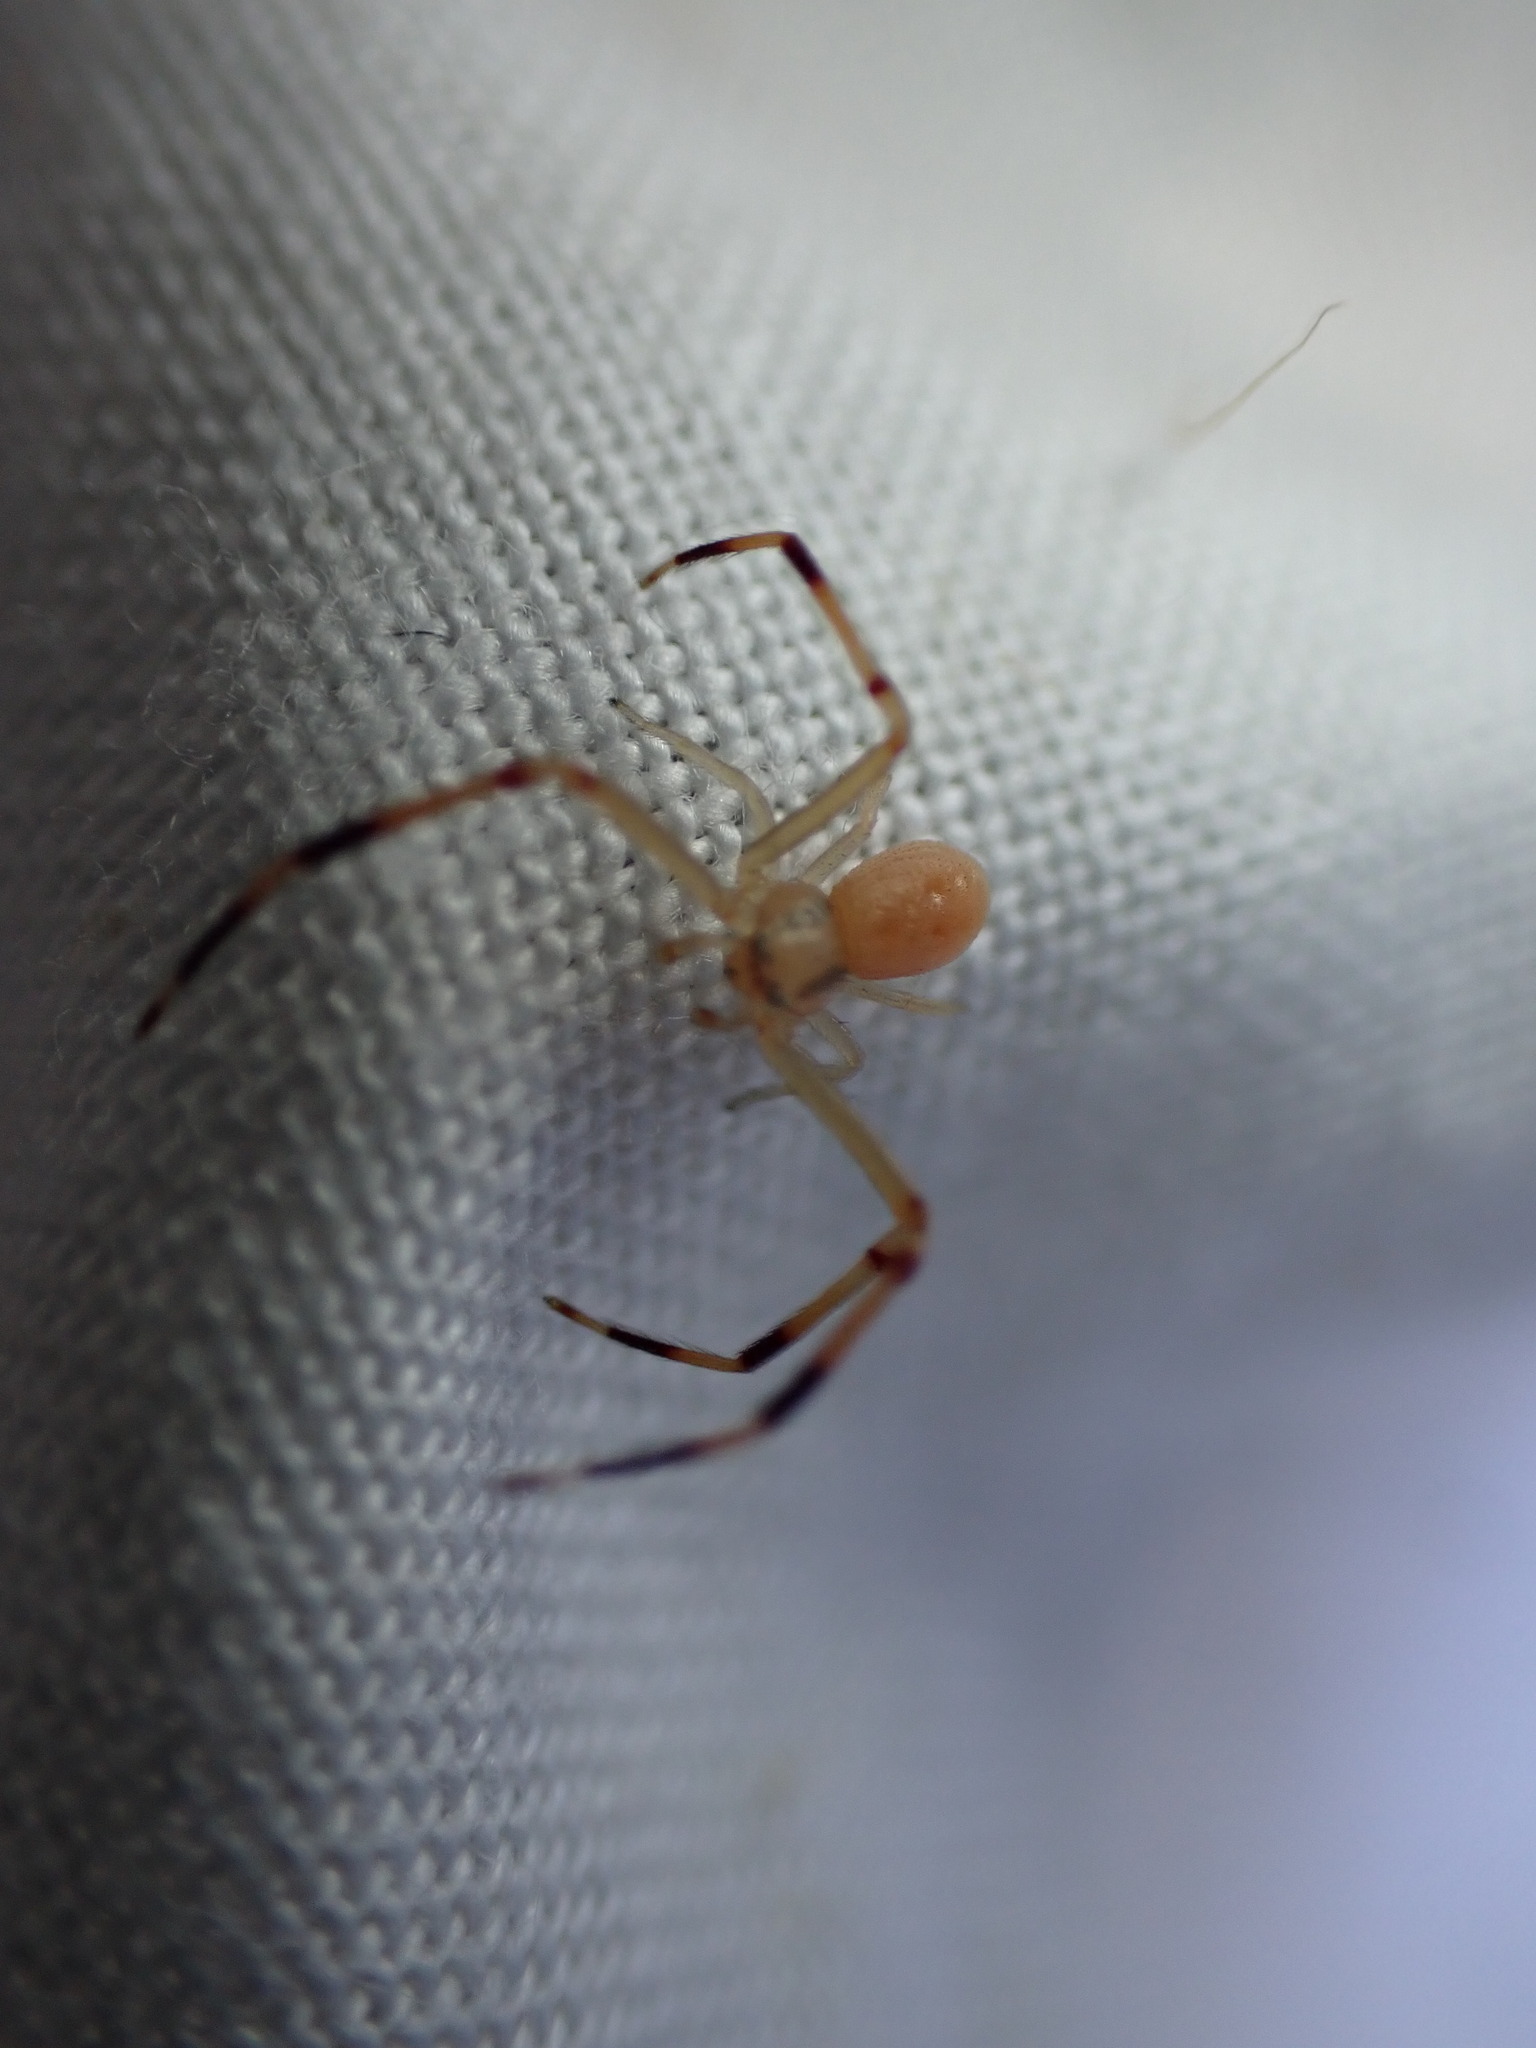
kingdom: Animalia
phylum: Arthropoda
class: Arachnida
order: Araneae
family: Thomisidae
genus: Runcinia
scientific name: Runcinia grammica
